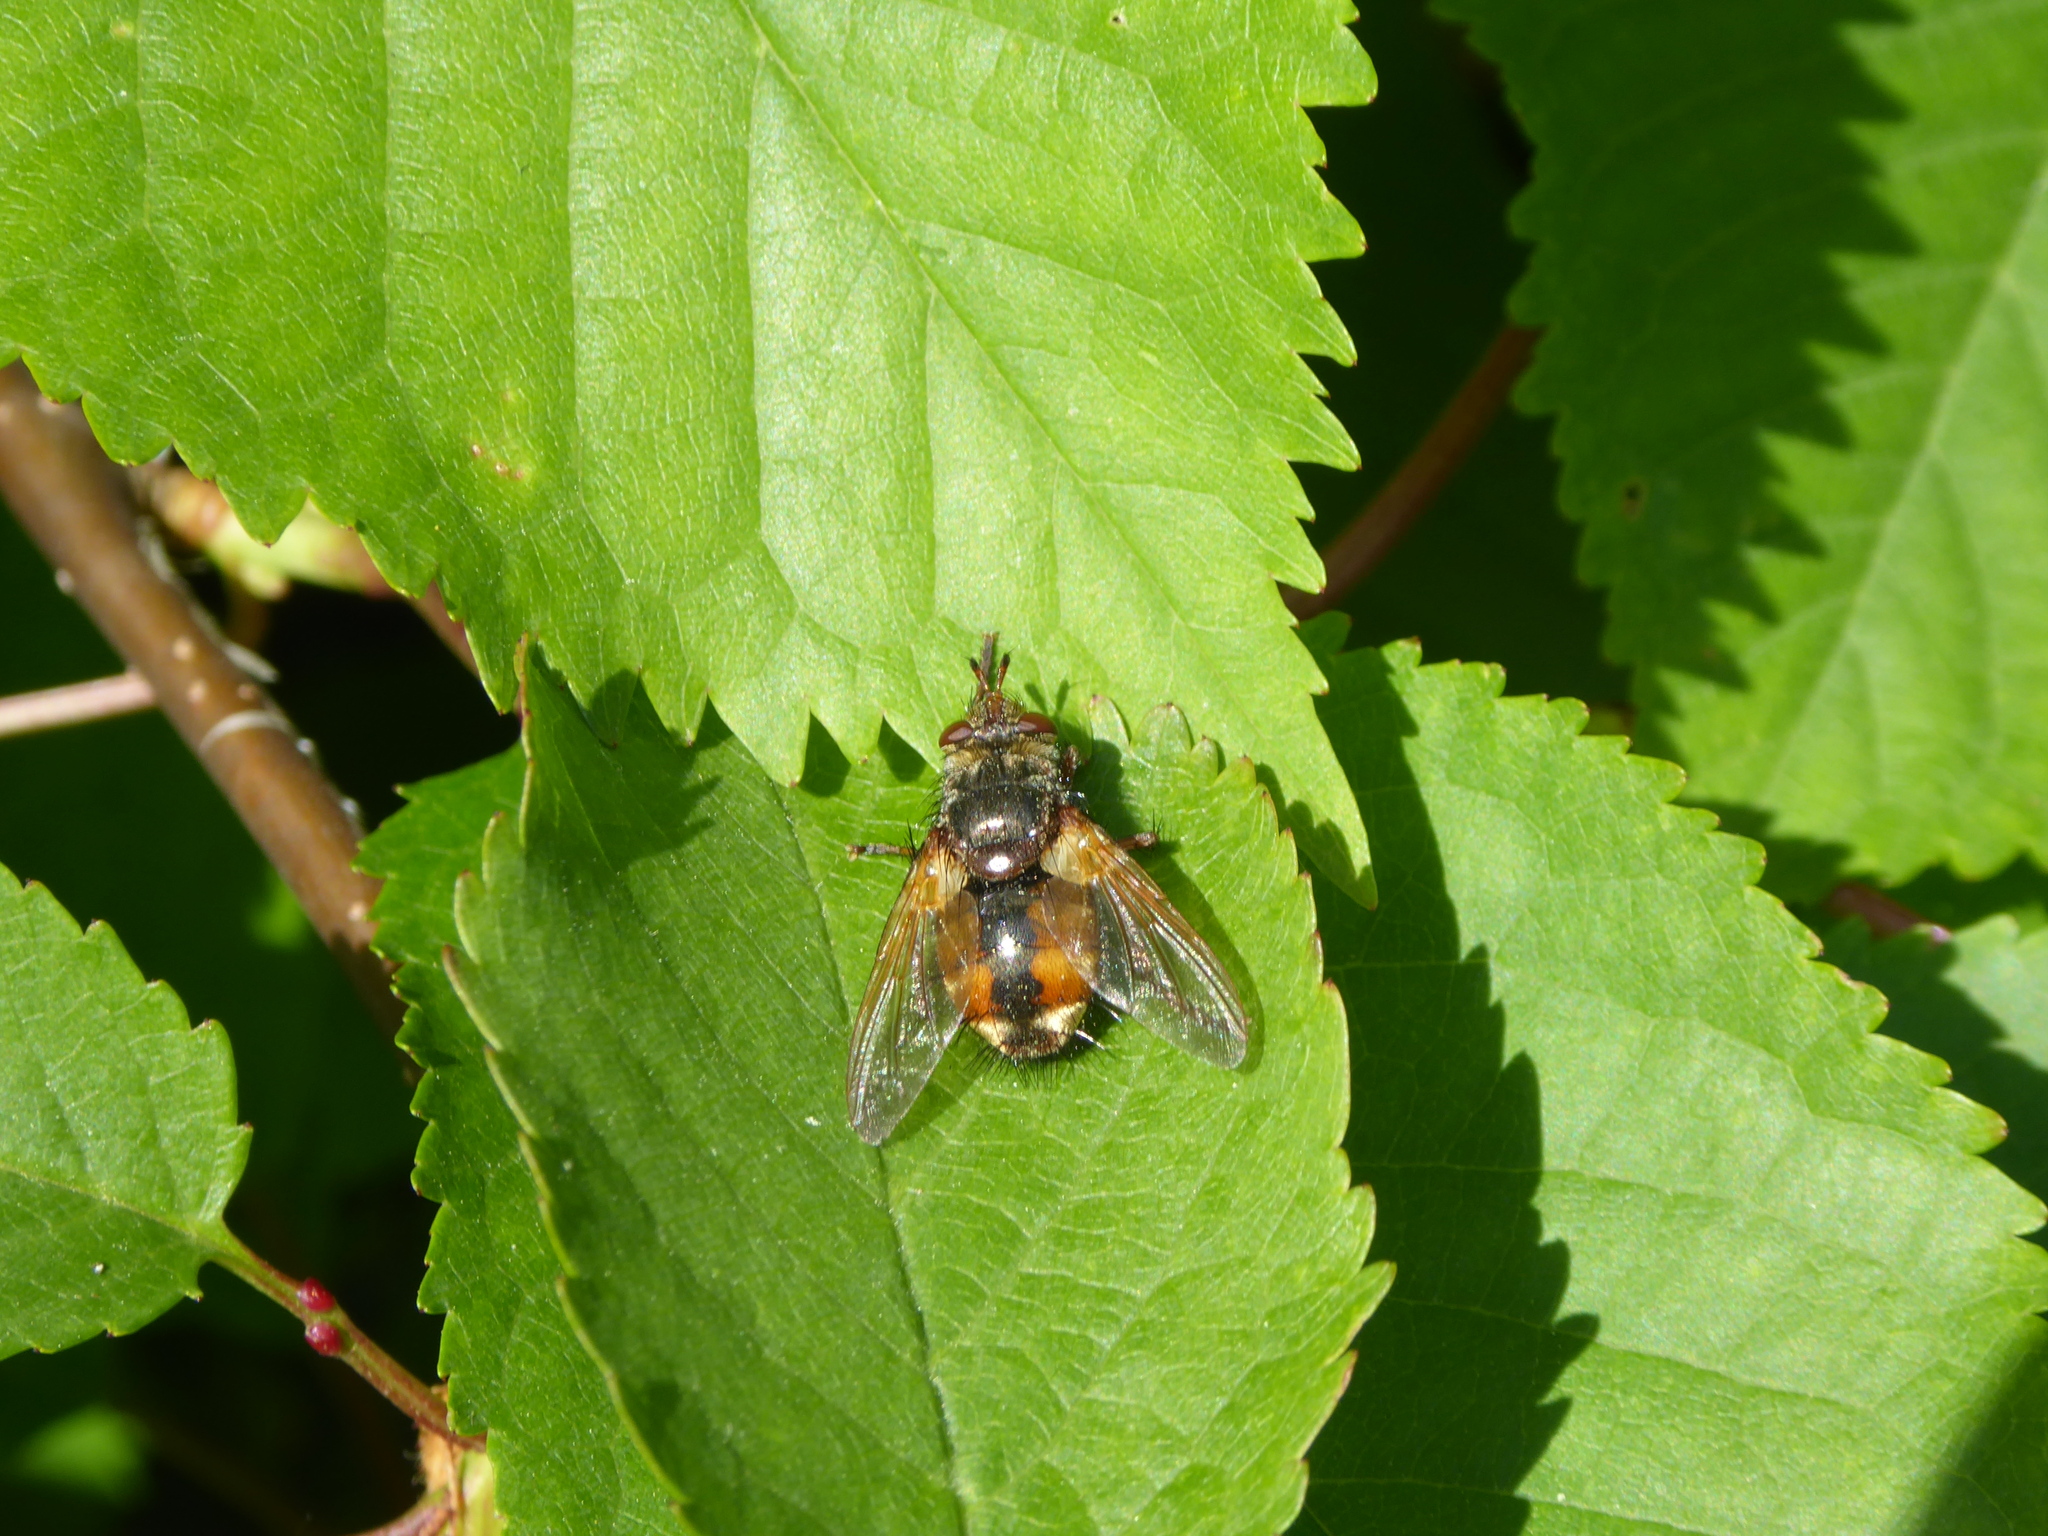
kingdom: Animalia
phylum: Arthropoda
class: Insecta
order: Diptera
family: Tachinidae
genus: Tachina
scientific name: Tachina fera
